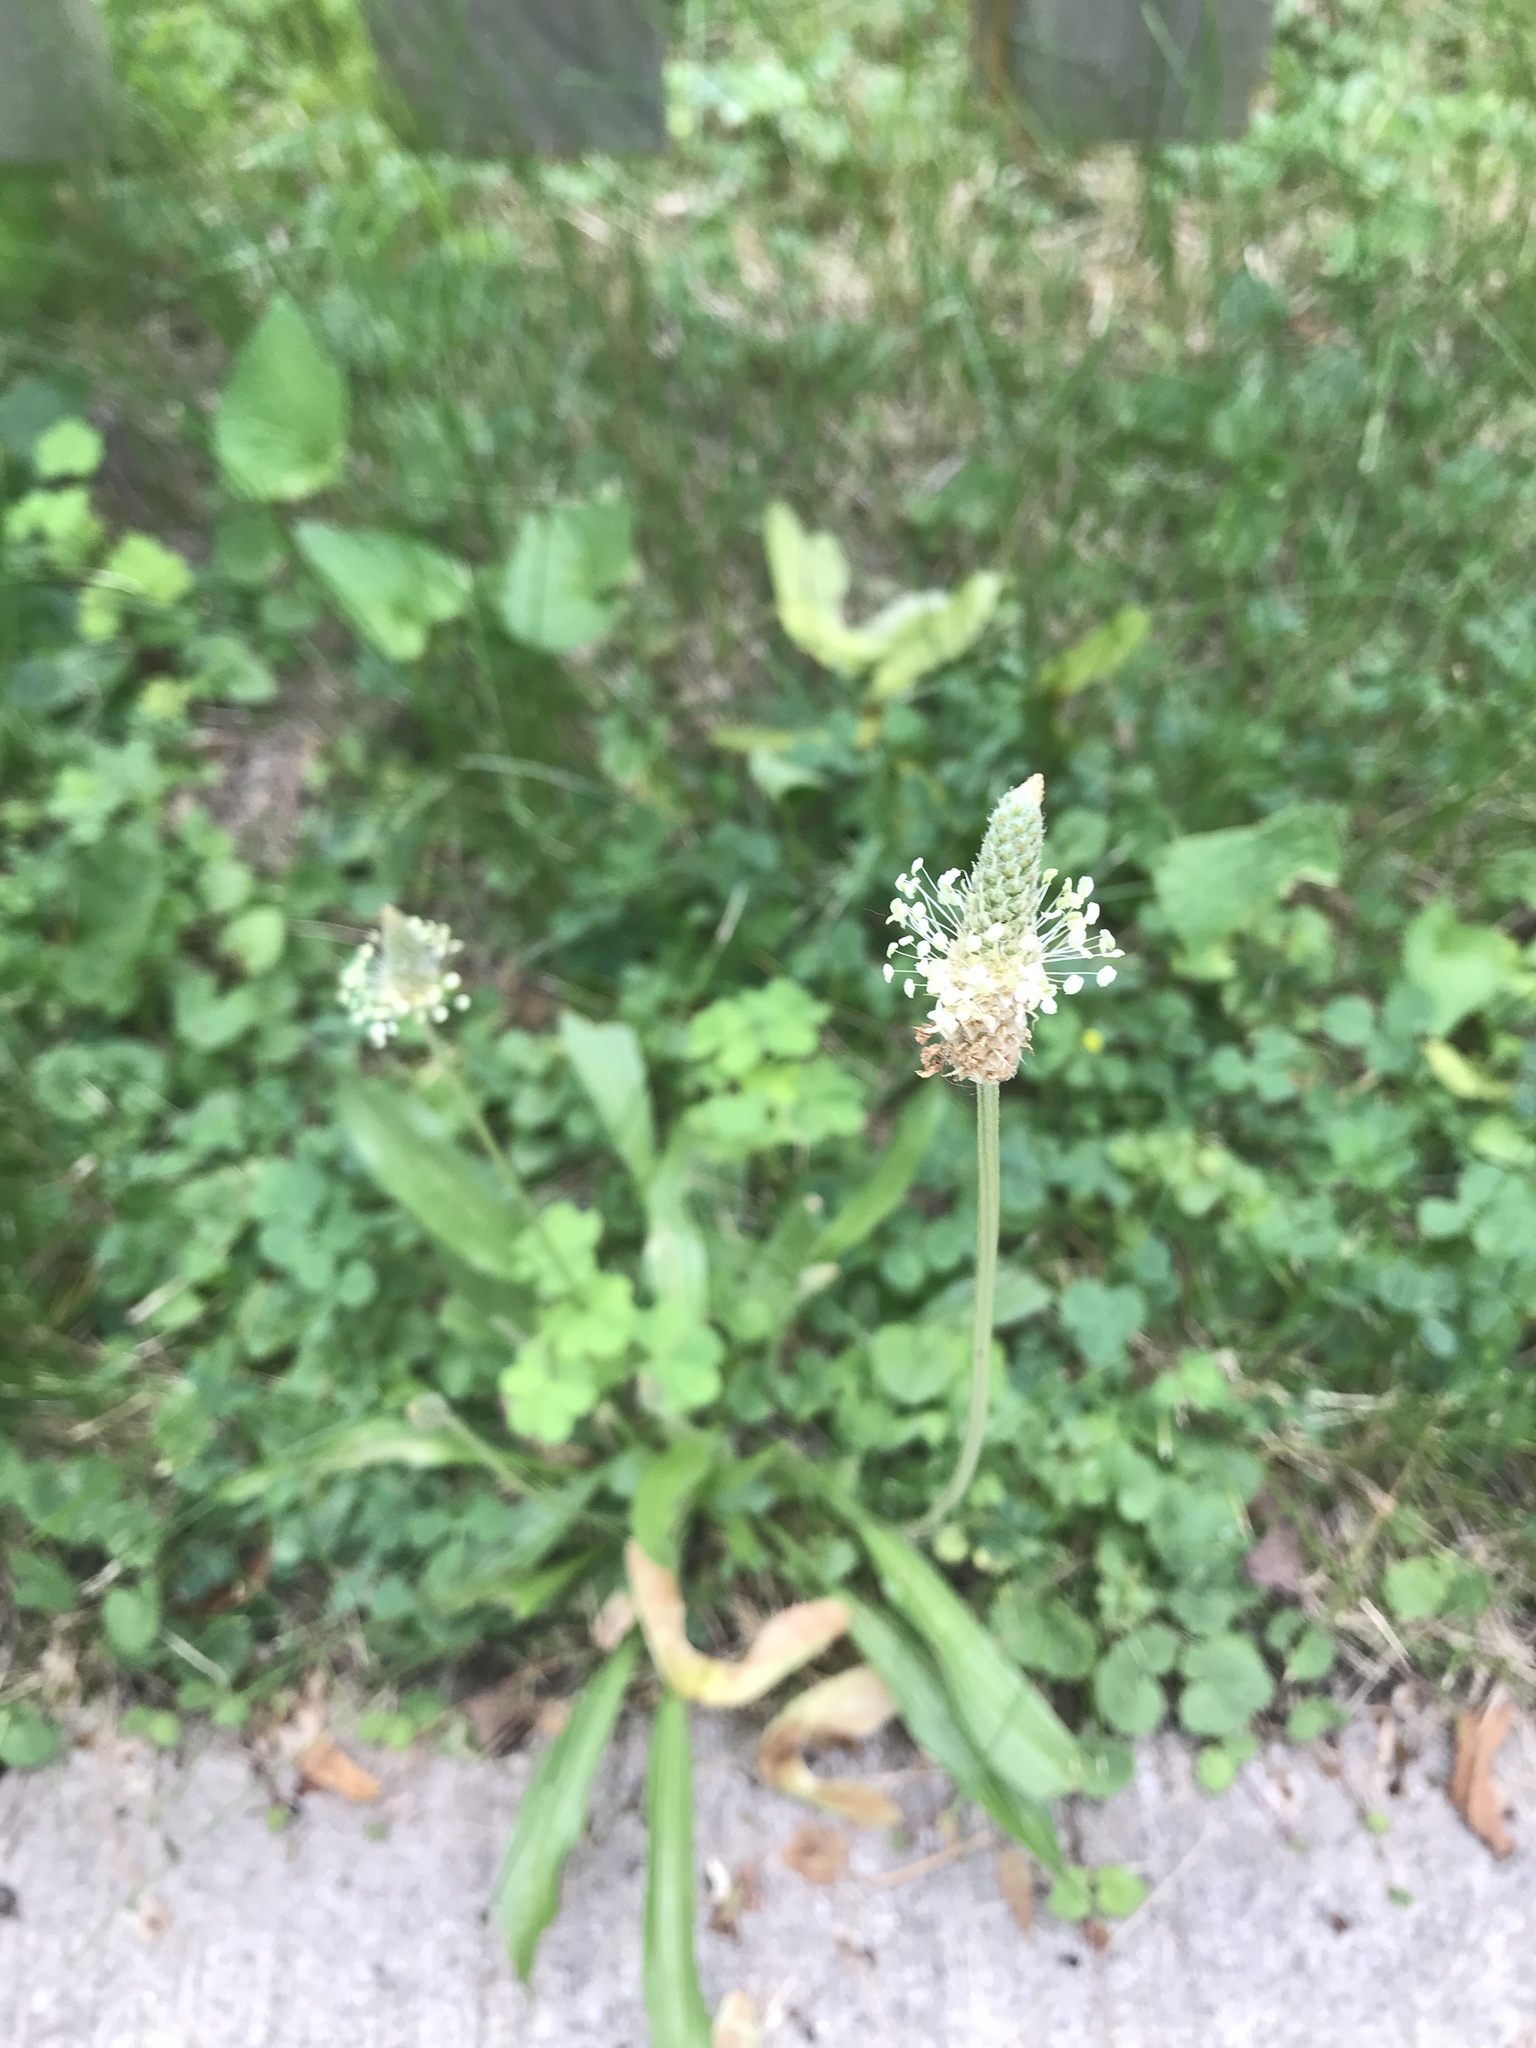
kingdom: Plantae
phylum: Tracheophyta
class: Magnoliopsida
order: Lamiales
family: Plantaginaceae
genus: Plantago
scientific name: Plantago lanceolata
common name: Ribwort plantain
